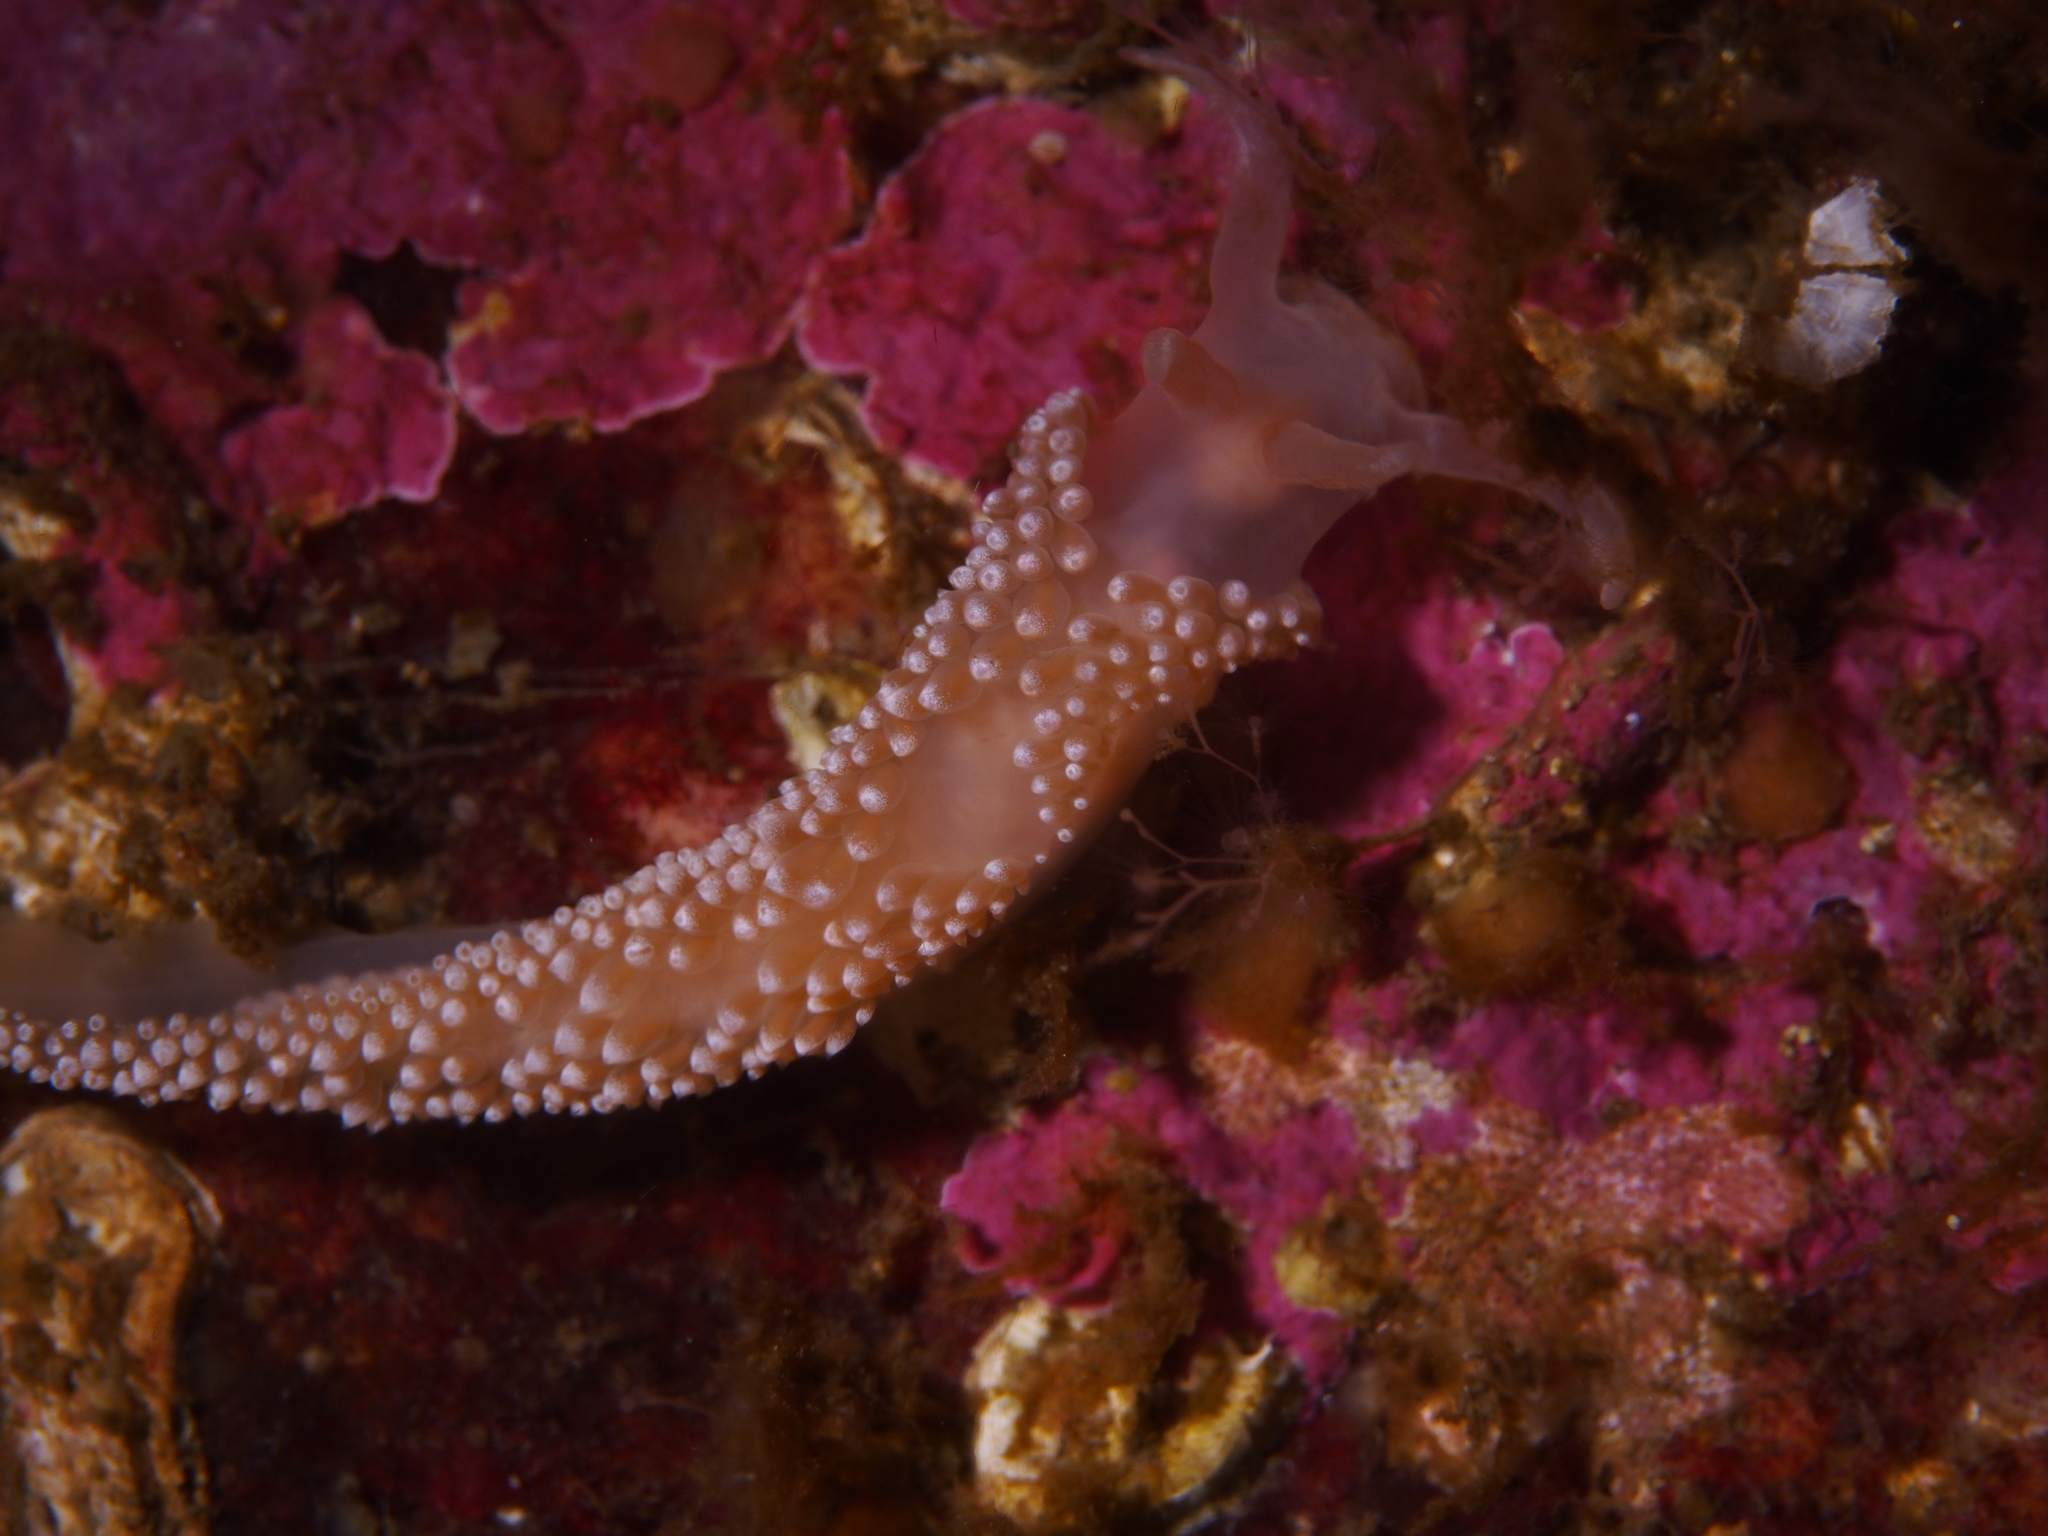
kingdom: Animalia
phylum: Mollusca
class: Gastropoda
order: Nudibranchia
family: Coryphellidae
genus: Coryphella
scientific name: Coryphella verrucosa
